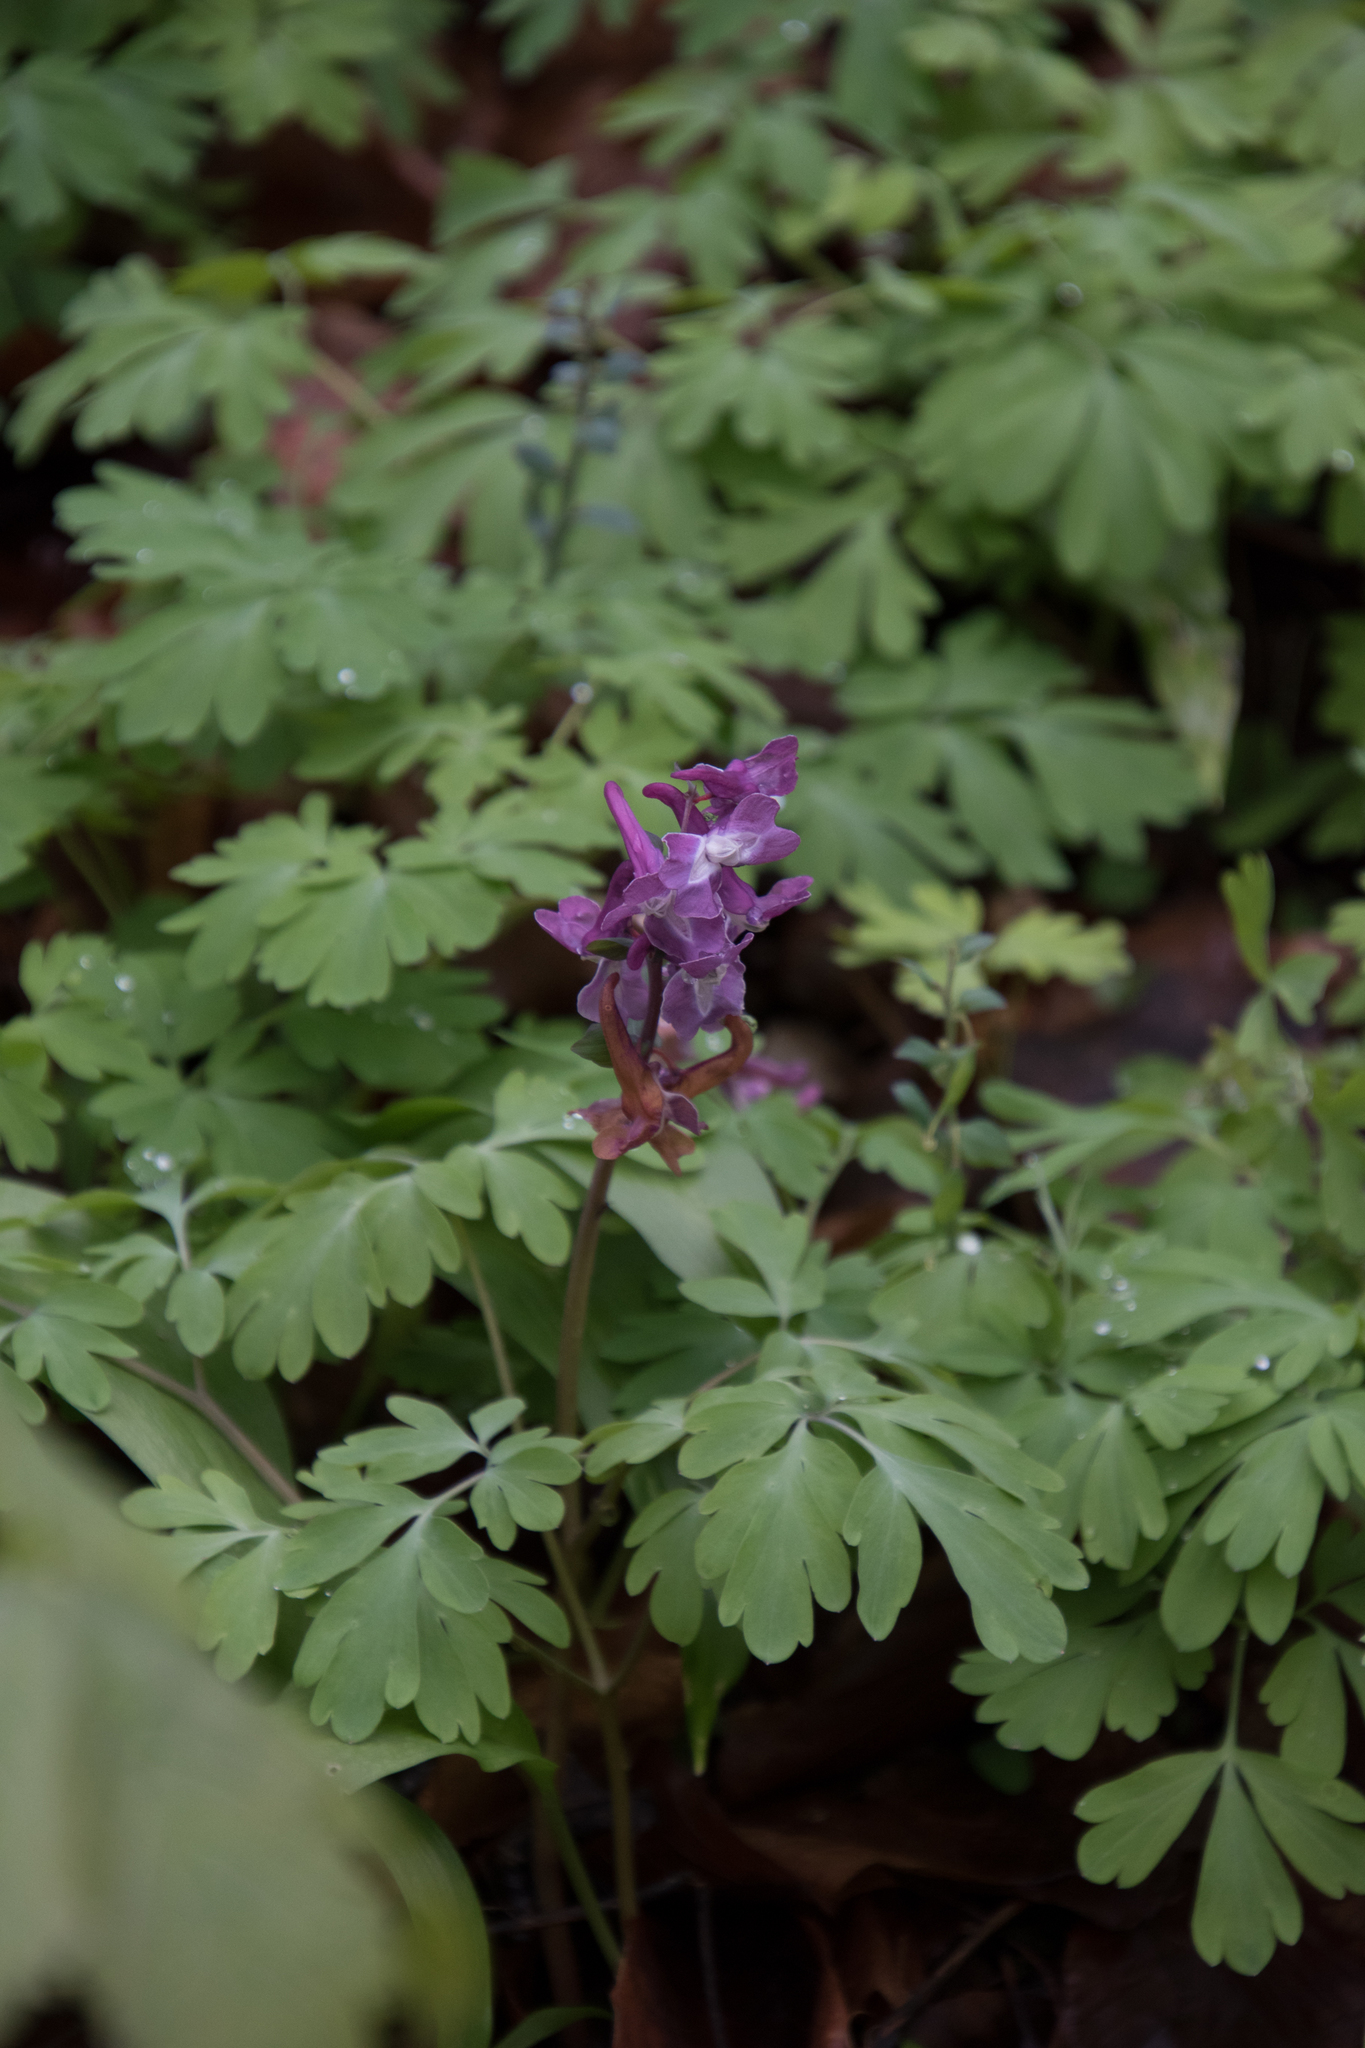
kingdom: Plantae
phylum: Tracheophyta
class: Magnoliopsida
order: Ranunculales
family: Papaveraceae
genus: Corydalis
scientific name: Corydalis cava
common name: Hollowroot
